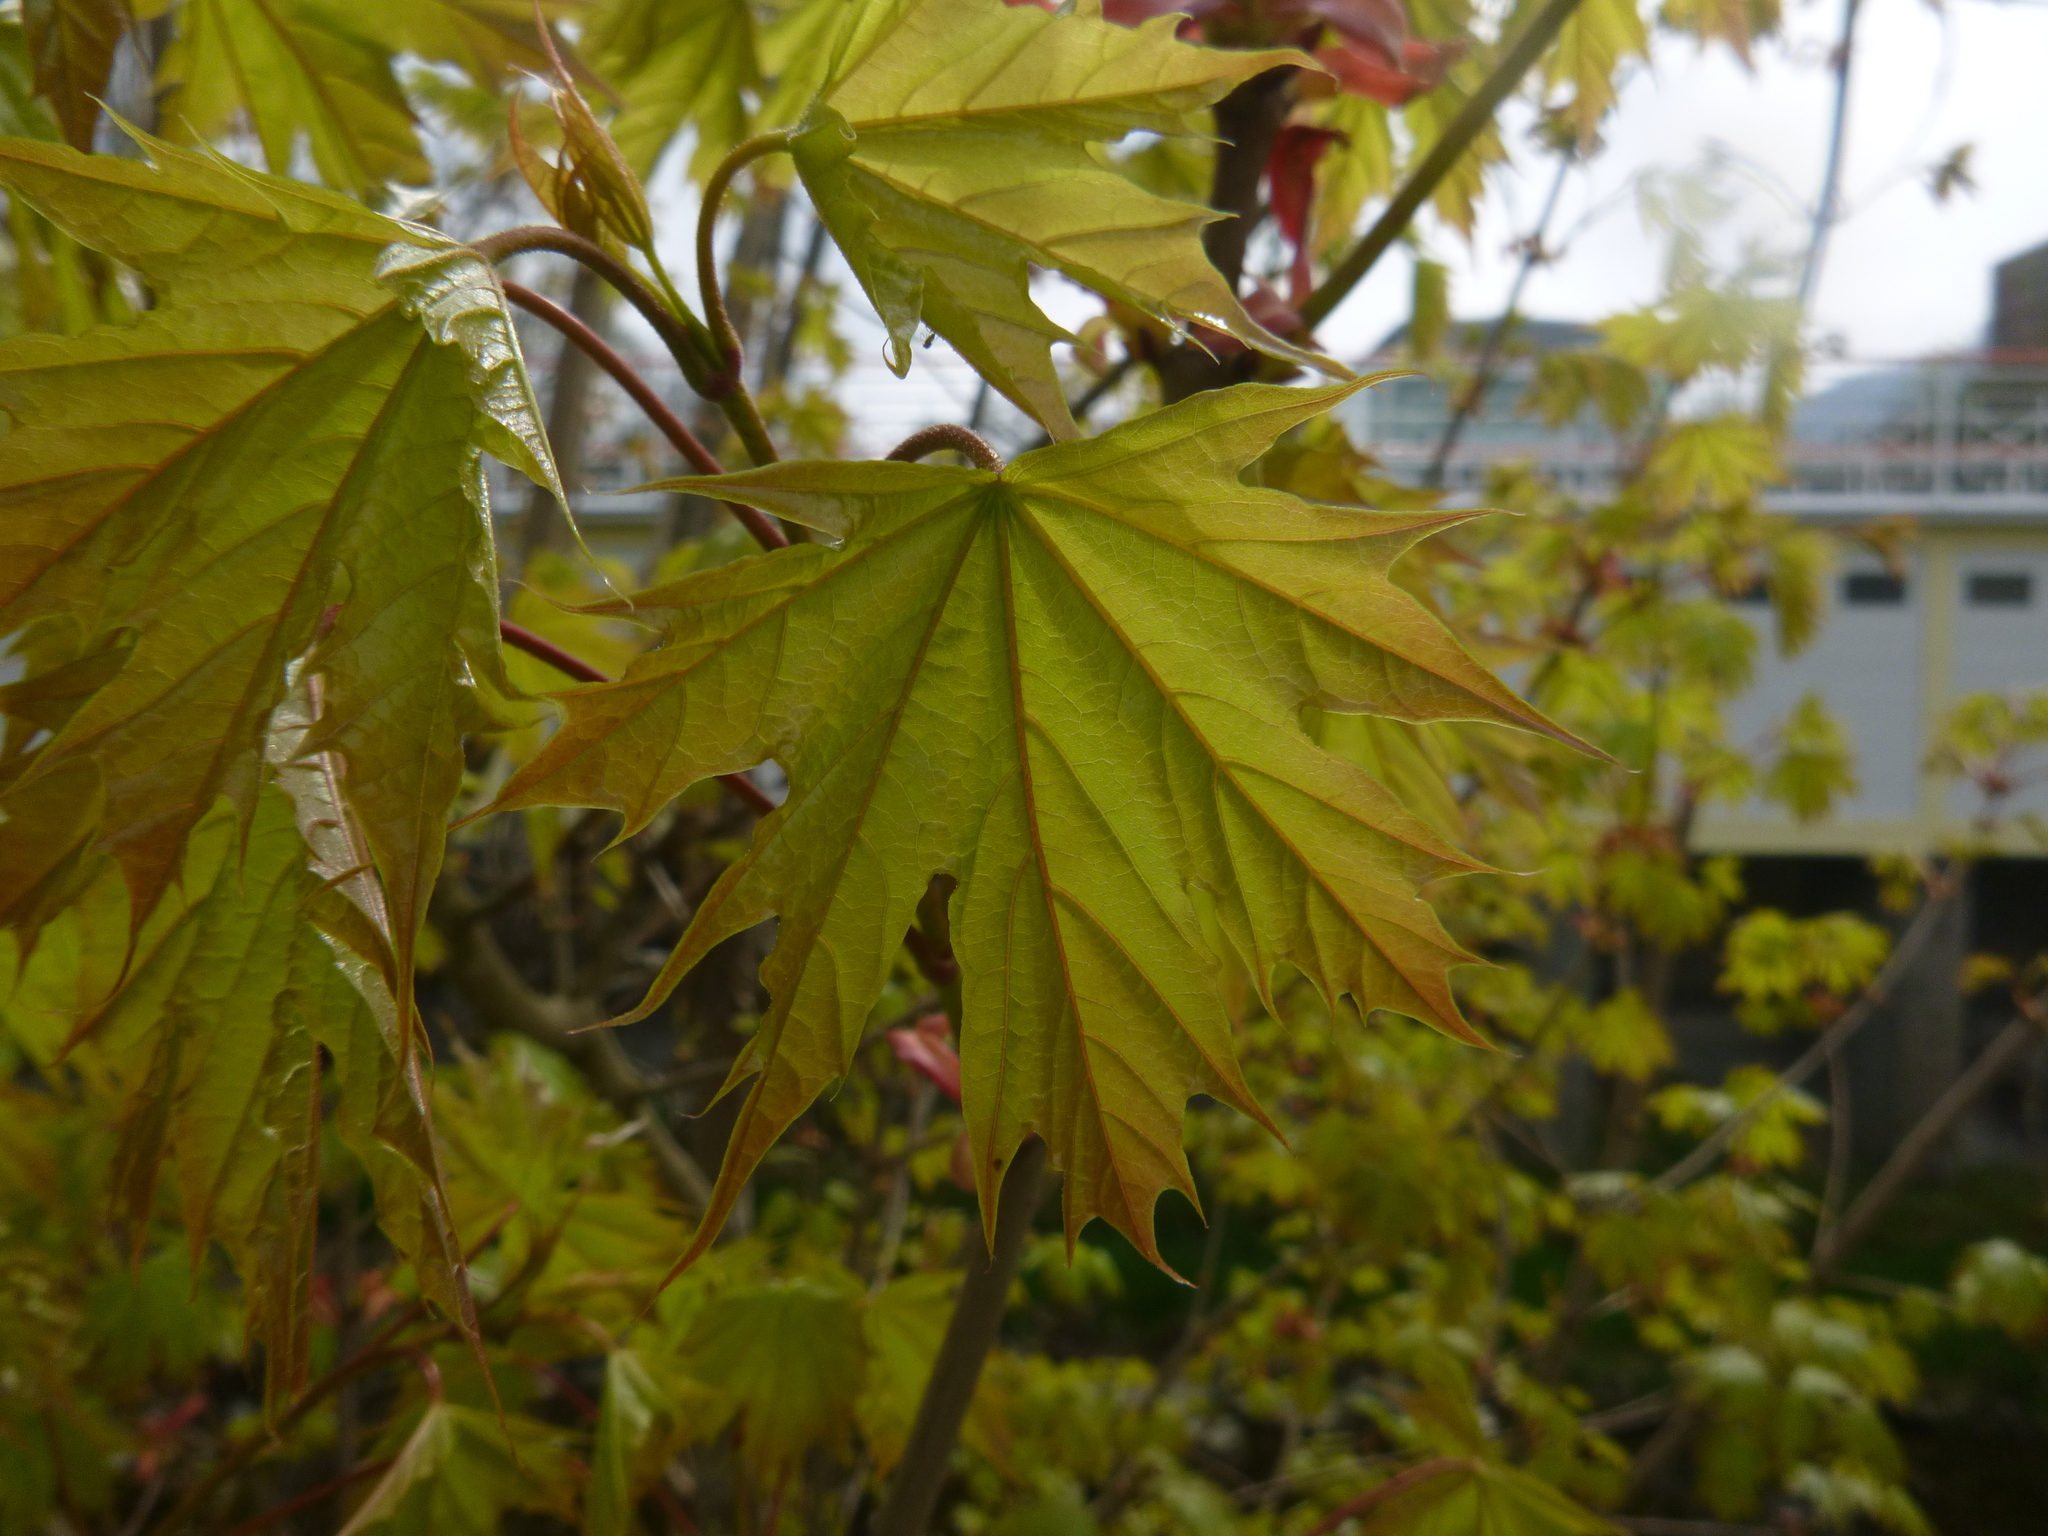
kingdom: Plantae
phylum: Tracheophyta
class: Magnoliopsida
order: Sapindales
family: Sapindaceae
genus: Acer
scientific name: Acer platanoides
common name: Norway maple
